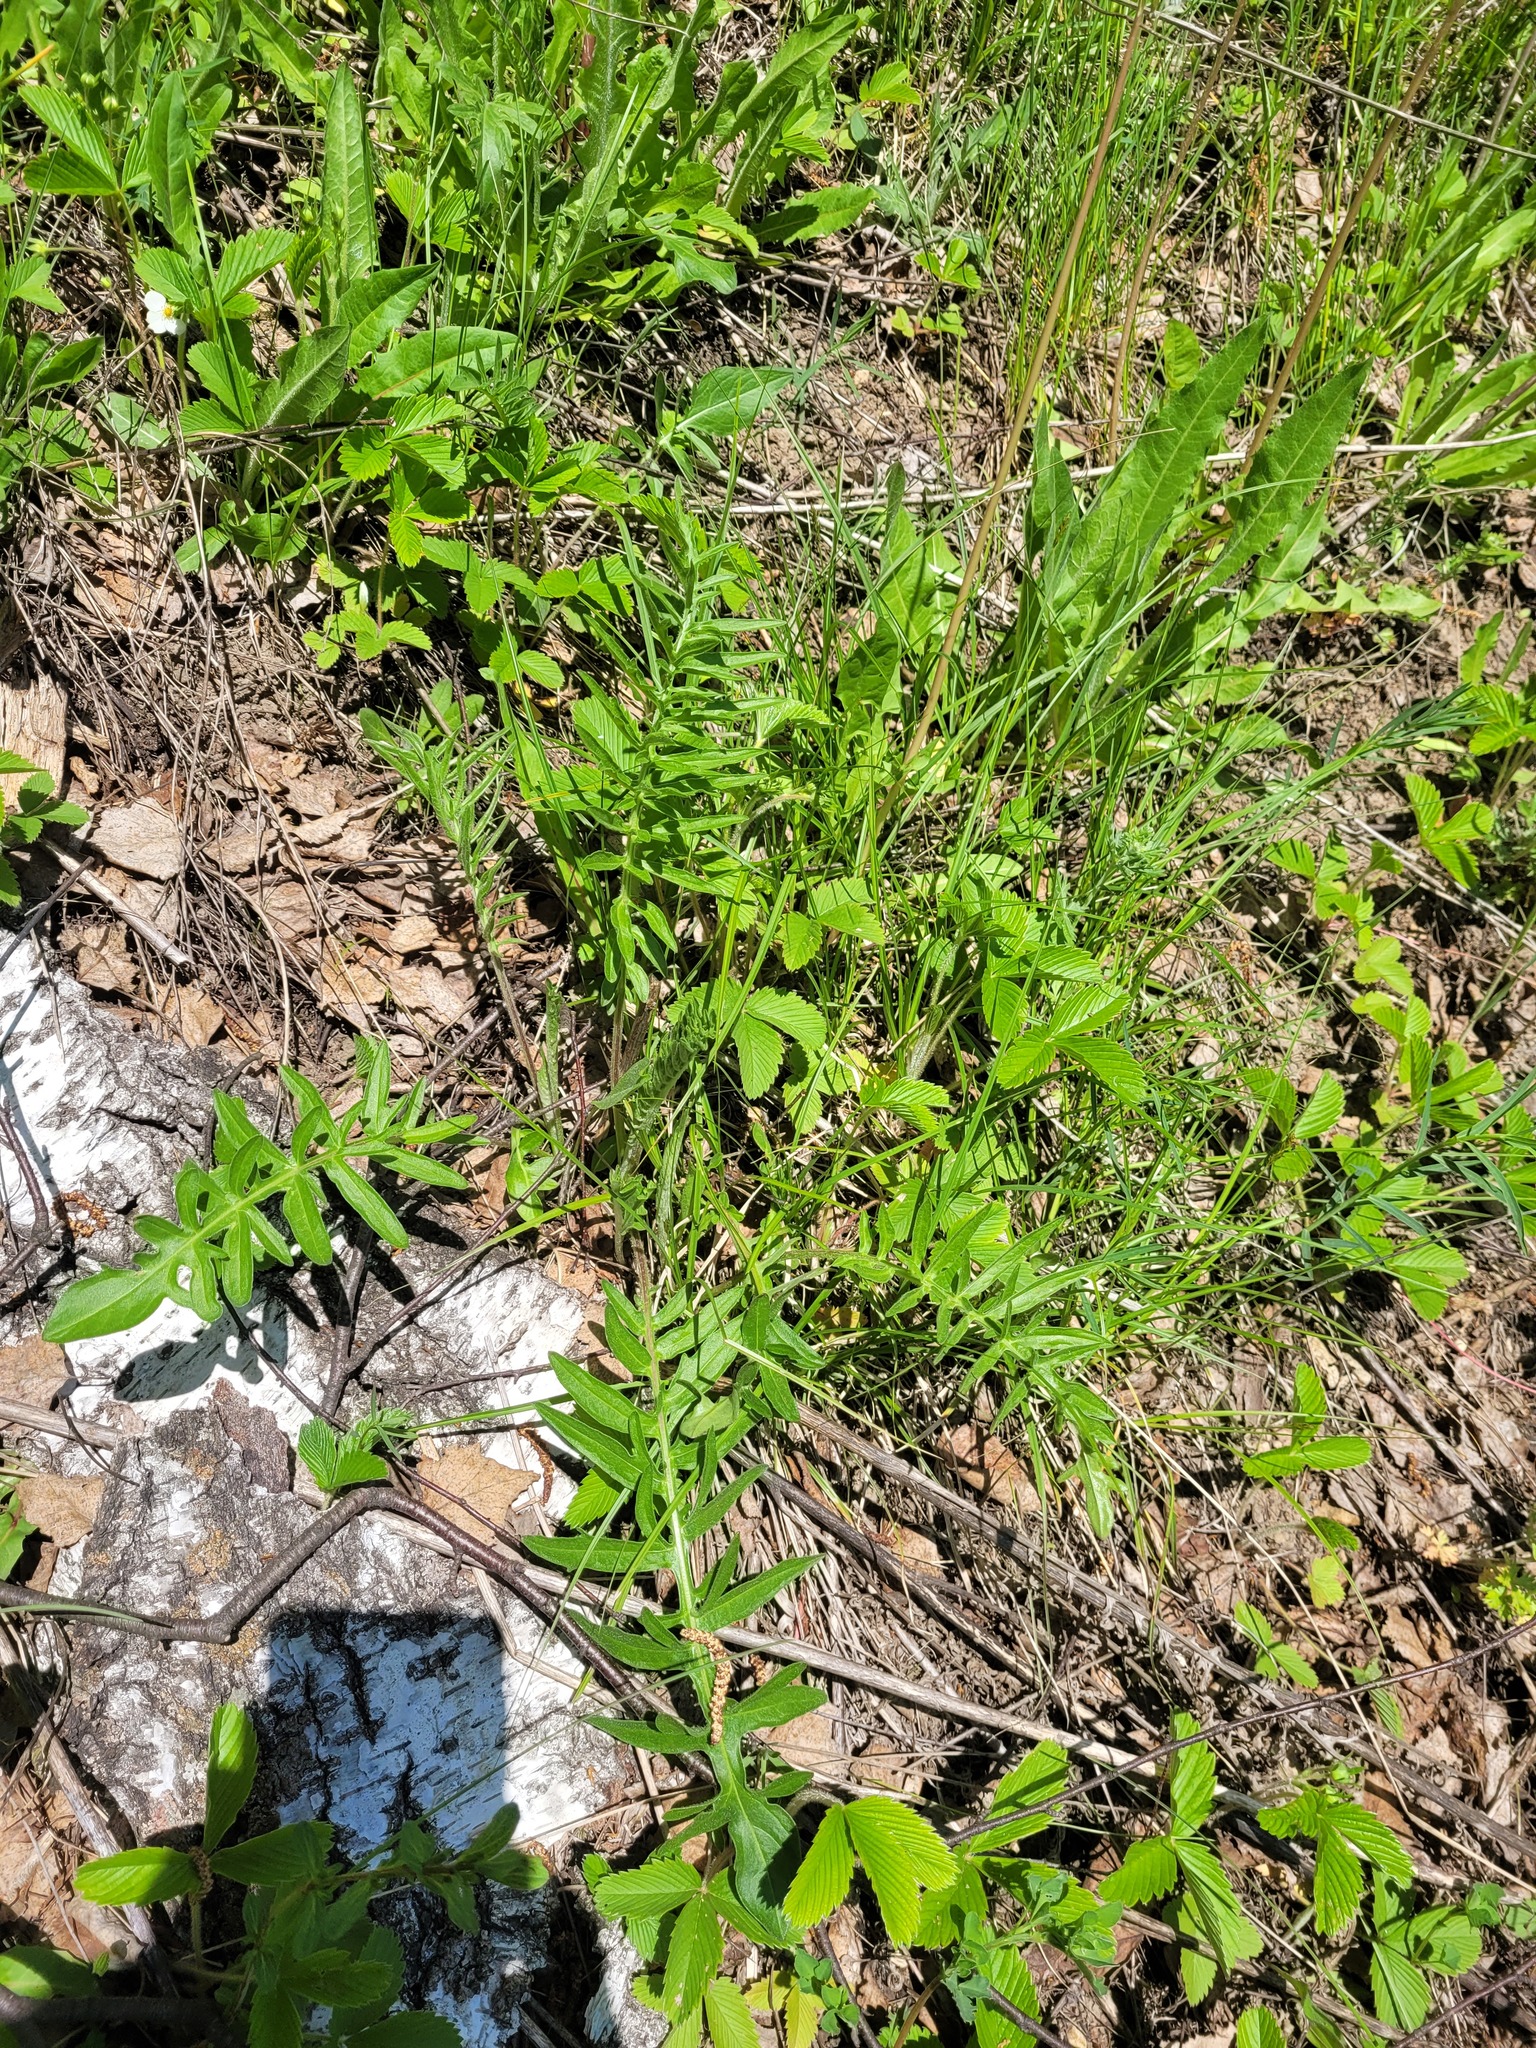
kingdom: Plantae
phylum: Tracheophyta
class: Magnoliopsida
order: Asterales
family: Asteraceae
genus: Centaurea
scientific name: Centaurea scabiosa
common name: Greater knapweed
